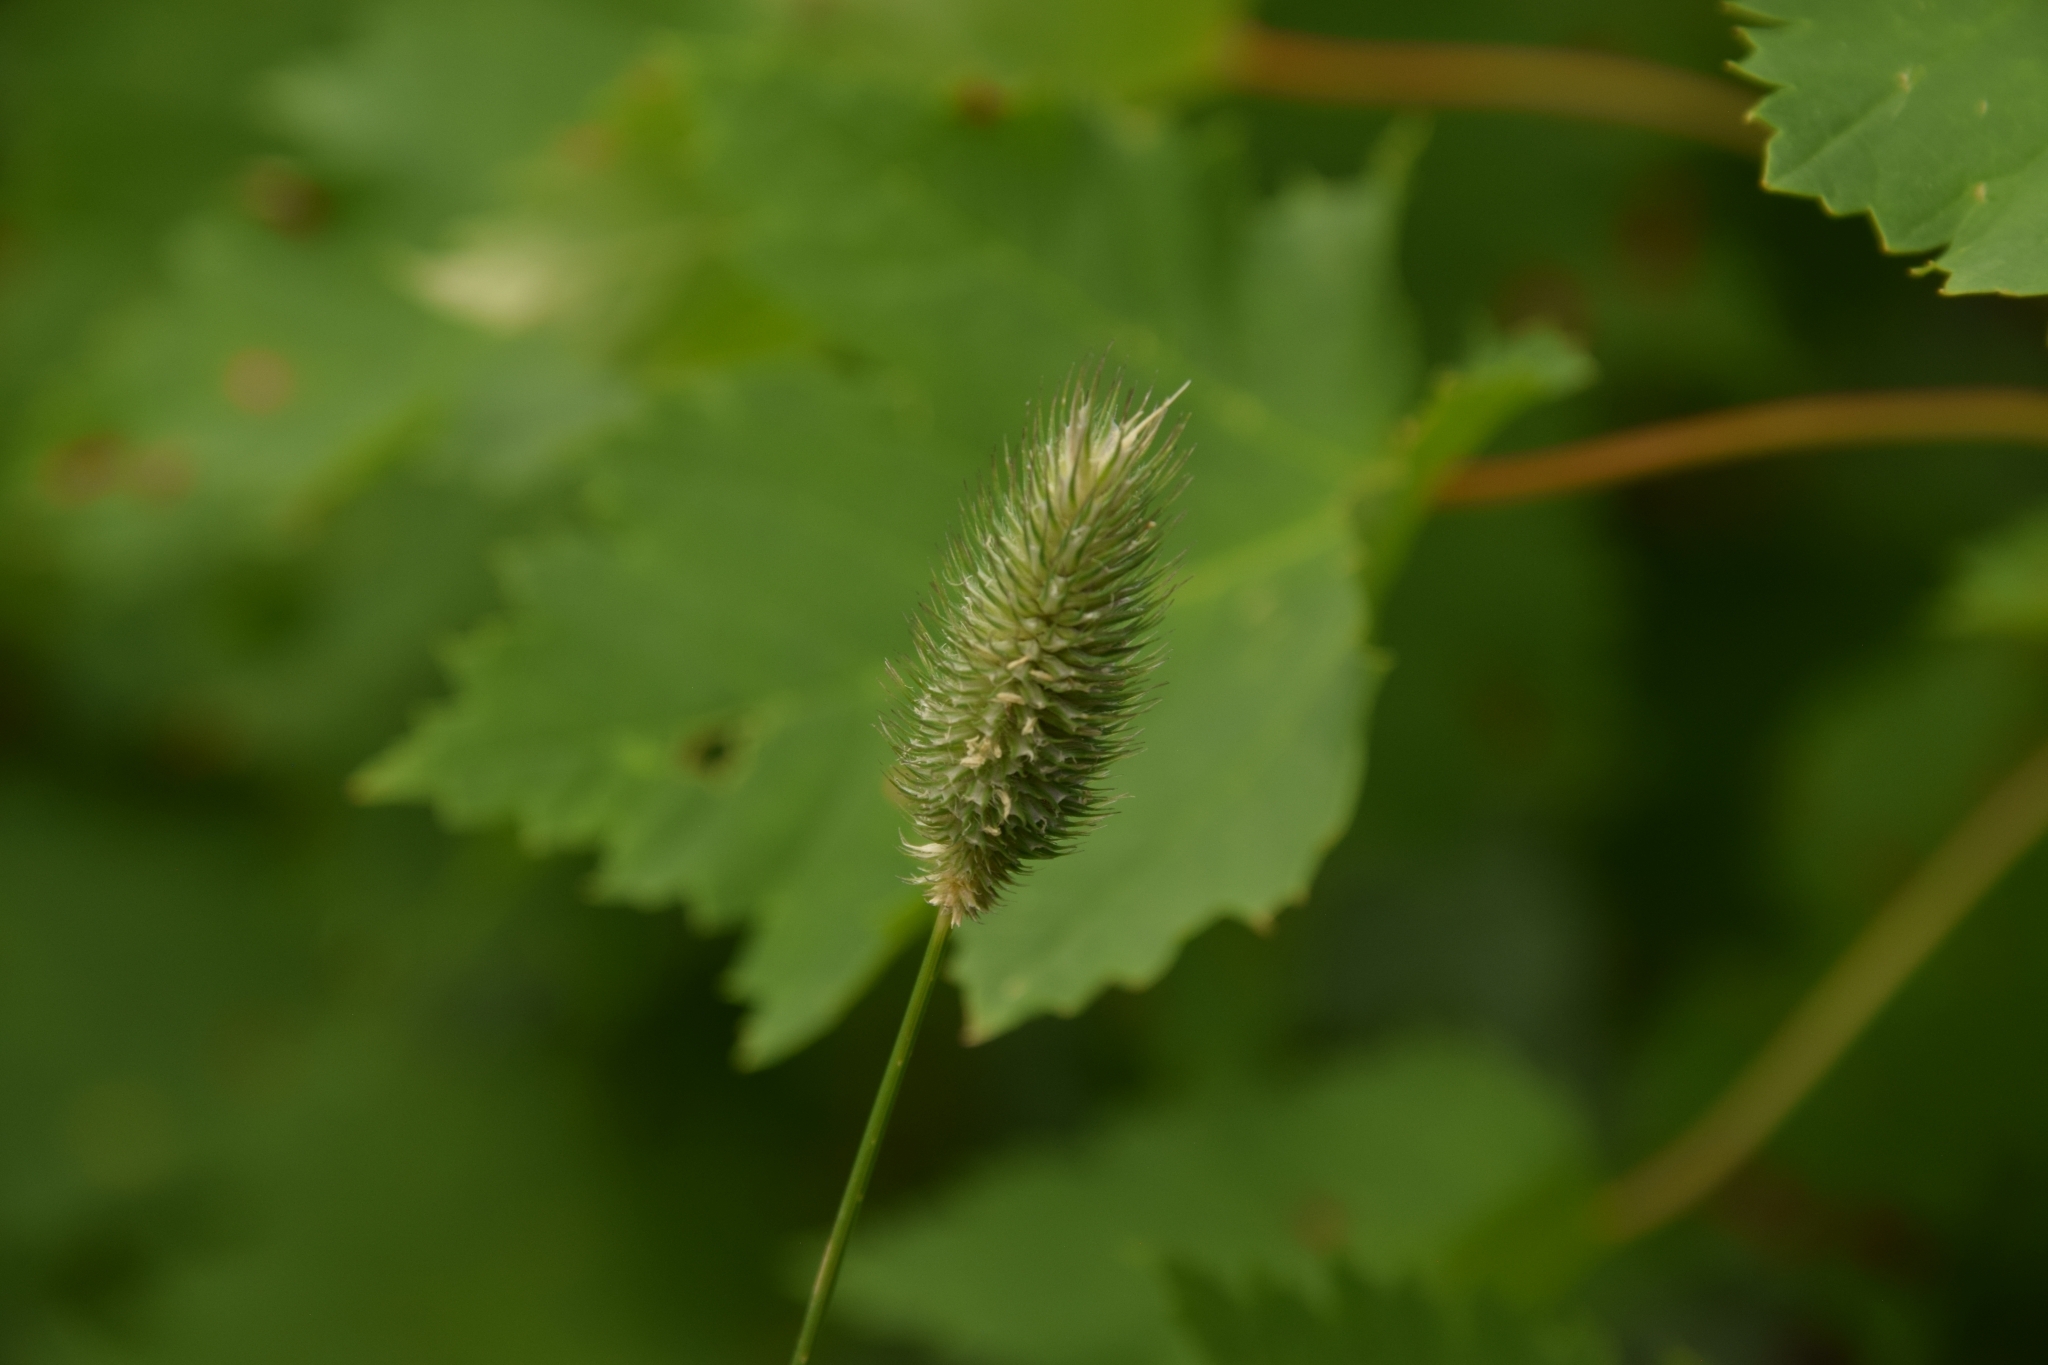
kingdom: Plantae
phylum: Tracheophyta
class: Liliopsida
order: Poales
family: Poaceae
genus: Phleum
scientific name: Phleum alpinum
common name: Alpine cat's-tail
